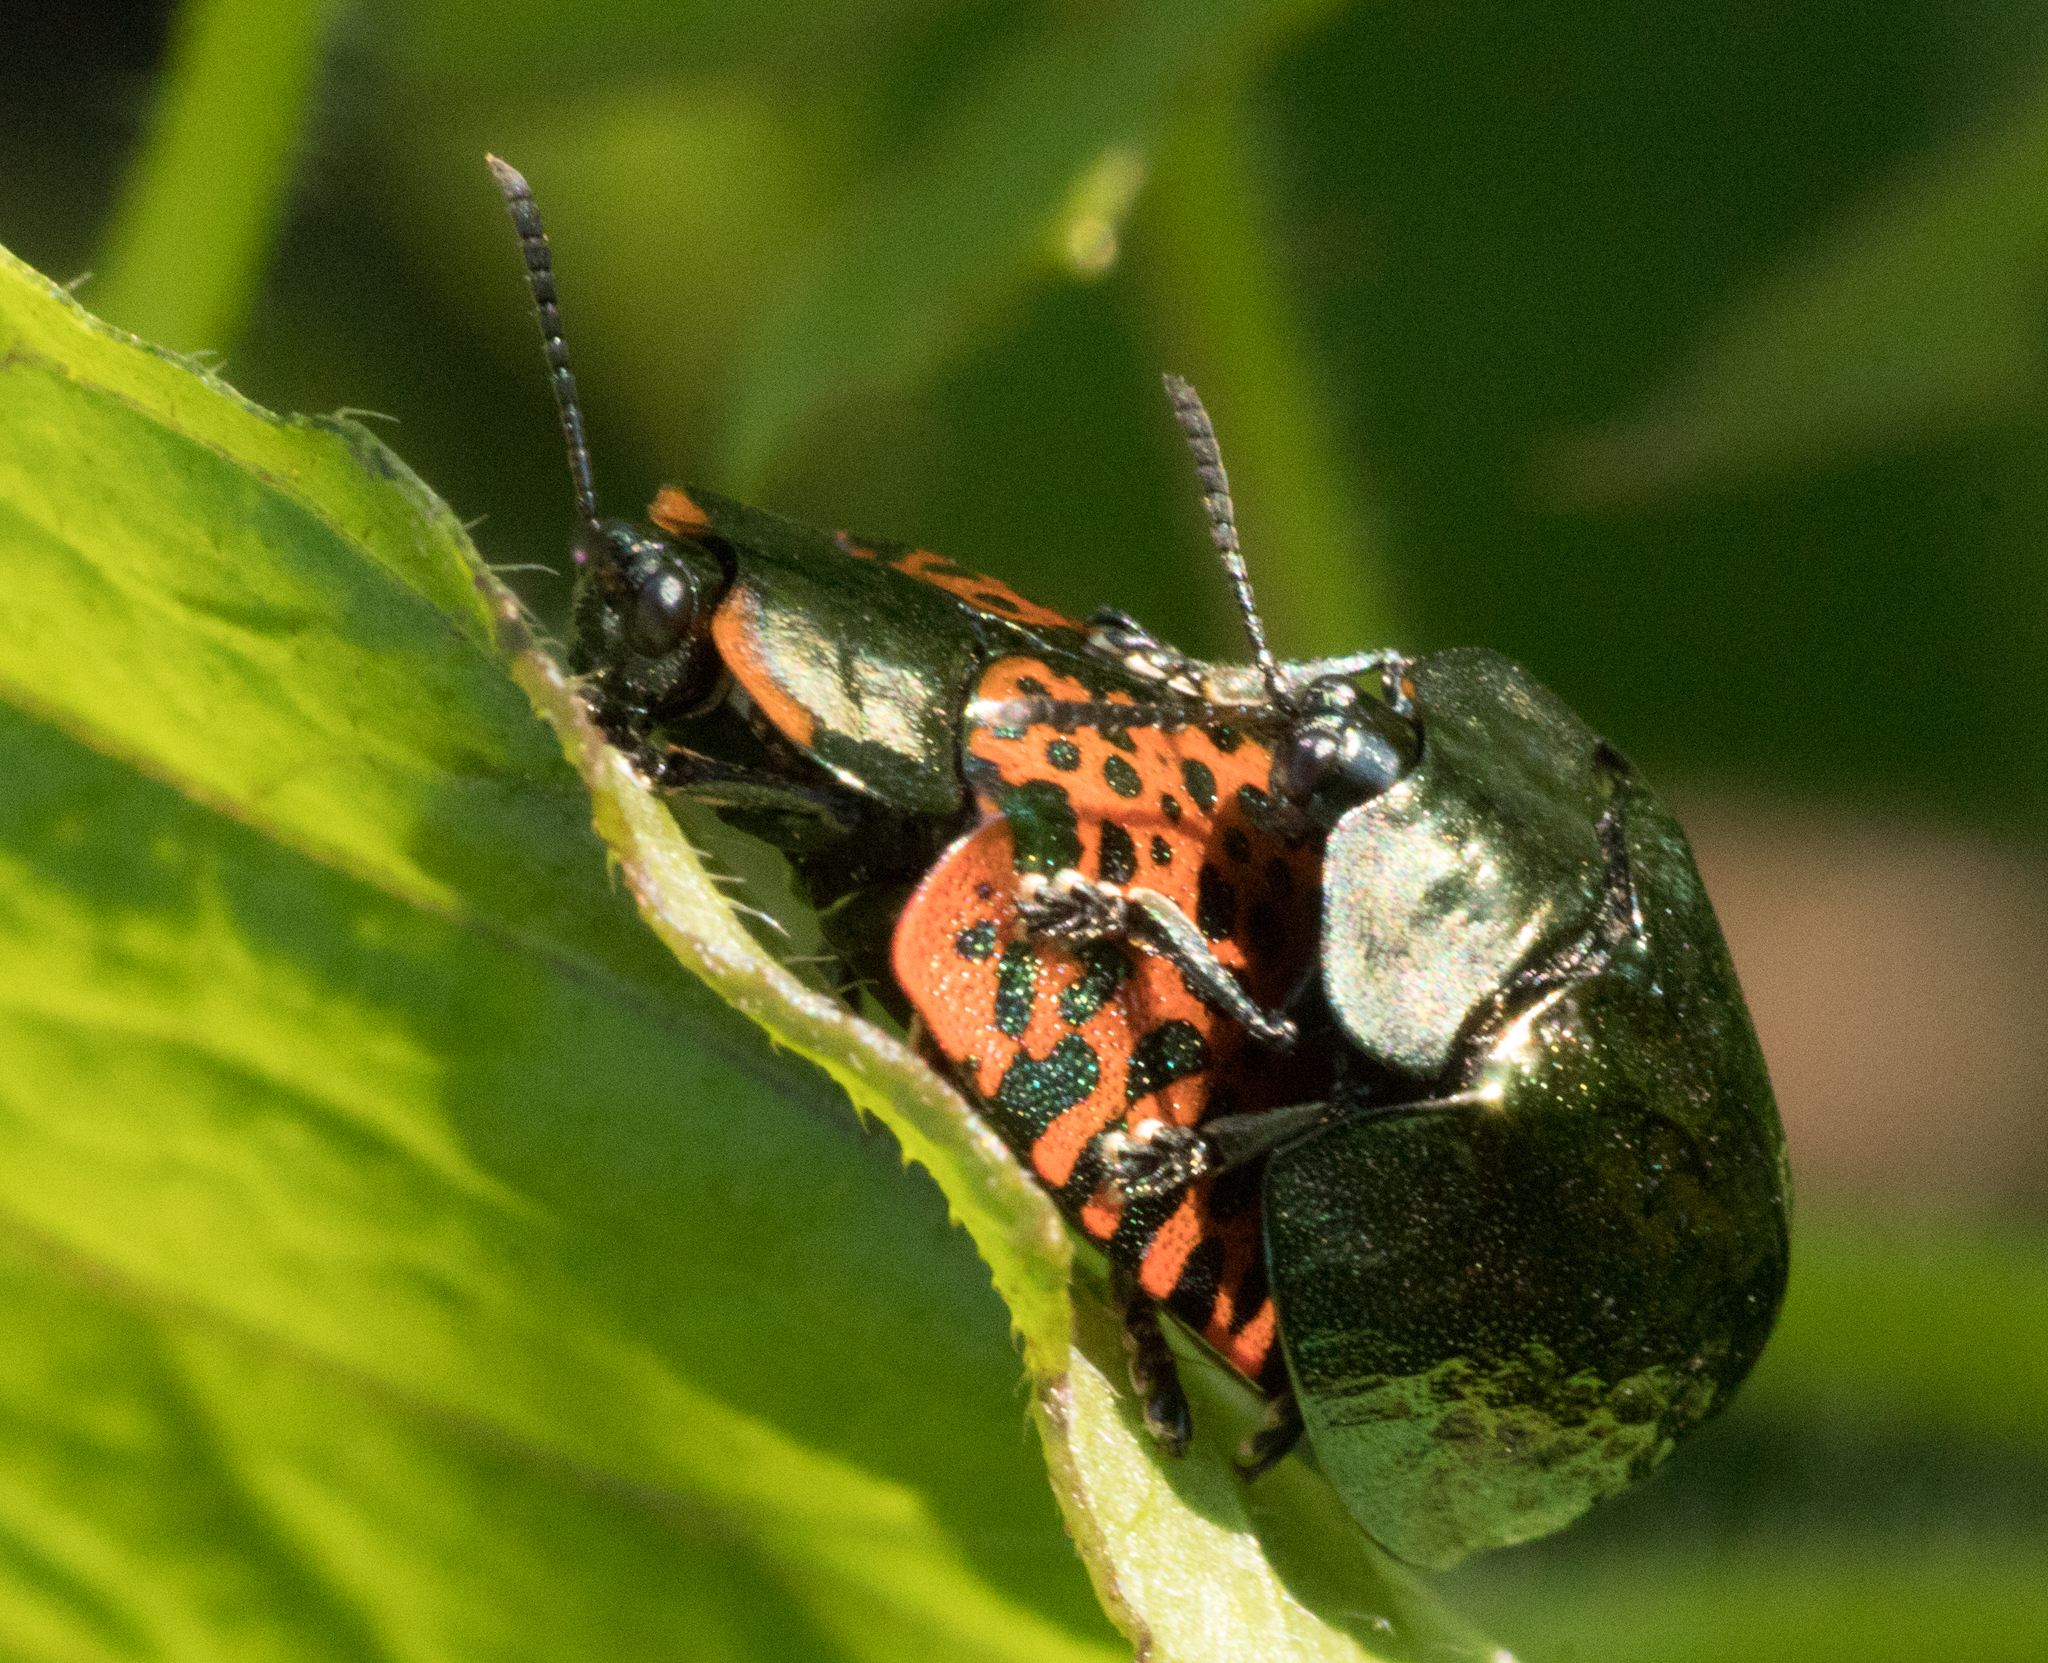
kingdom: Animalia
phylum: Arthropoda
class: Insecta
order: Coleoptera
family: Chrysomelidae
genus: Stolas
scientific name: Stolas lacordairei
